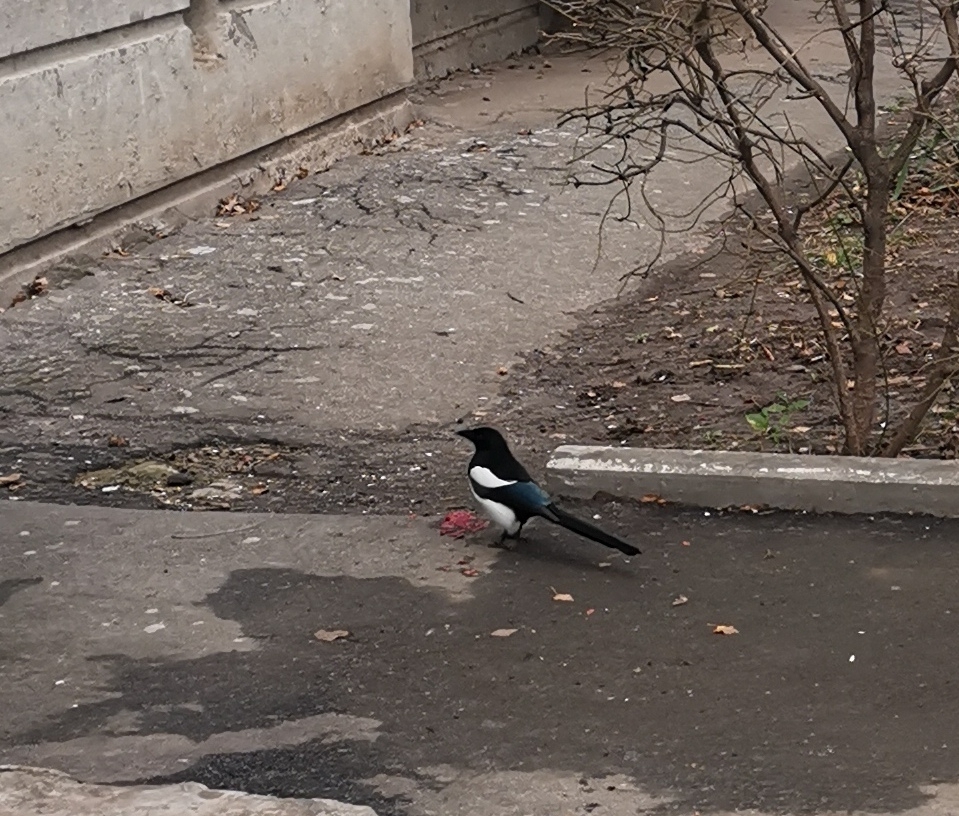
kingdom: Animalia
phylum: Chordata
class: Aves
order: Passeriformes
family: Corvidae
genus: Pica
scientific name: Pica pica
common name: Eurasian magpie
